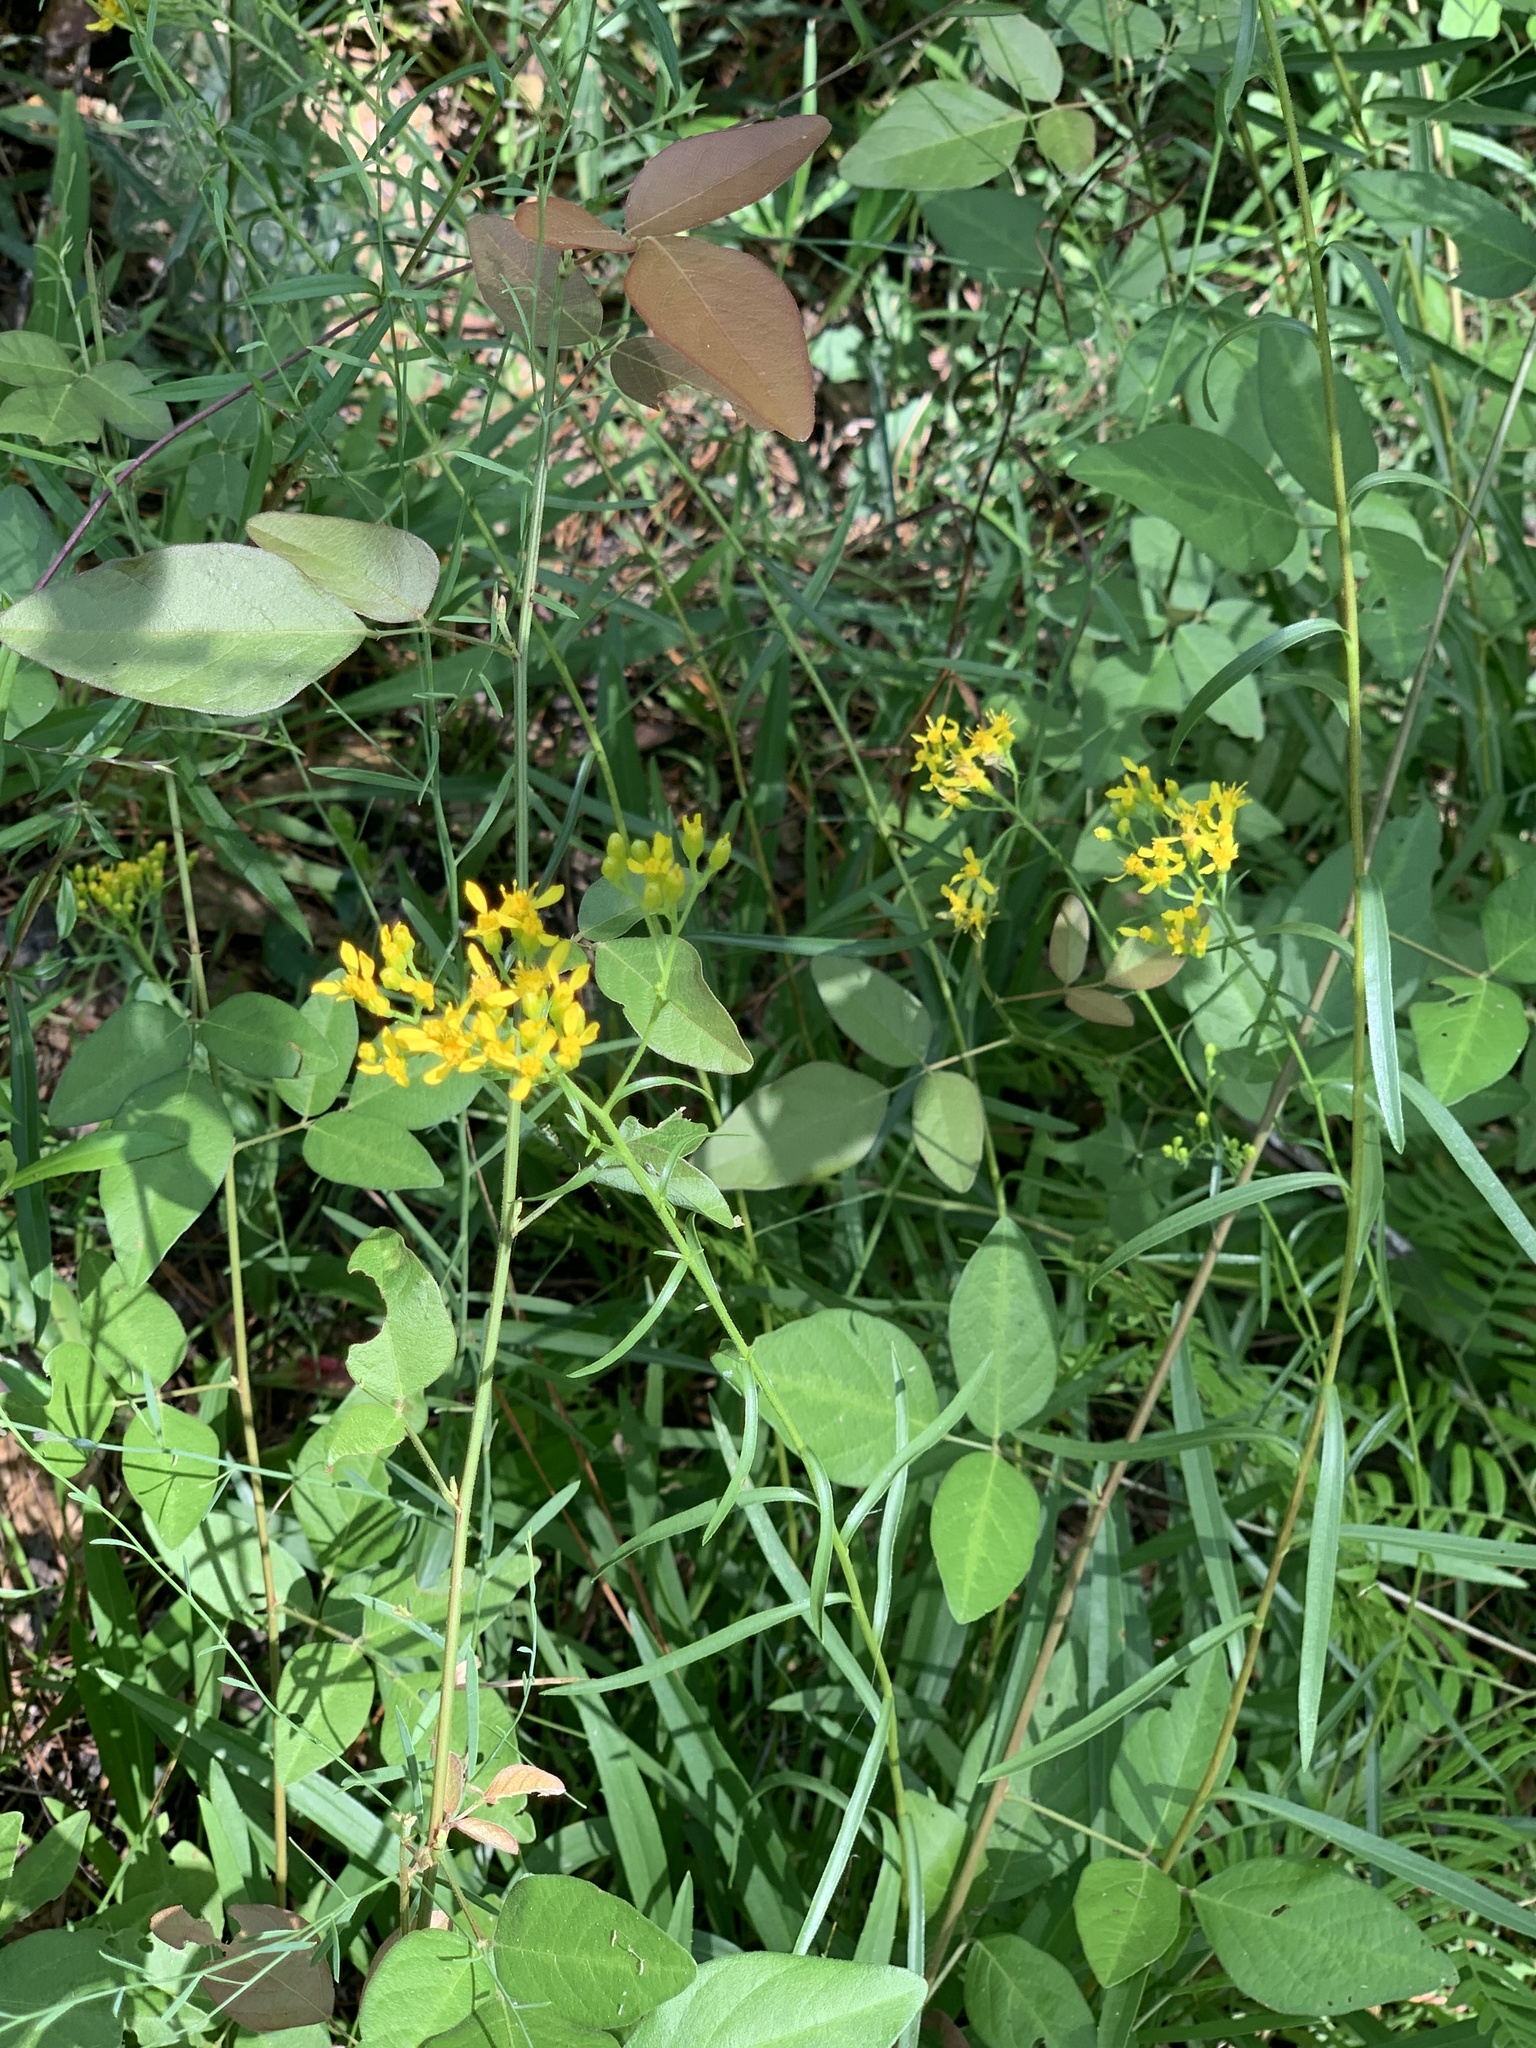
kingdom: Plantae
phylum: Tracheophyta
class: Magnoliopsida
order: Asterales
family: Asteraceae
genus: Solidago
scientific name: Solidago nitida
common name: Shiny goldenrod
